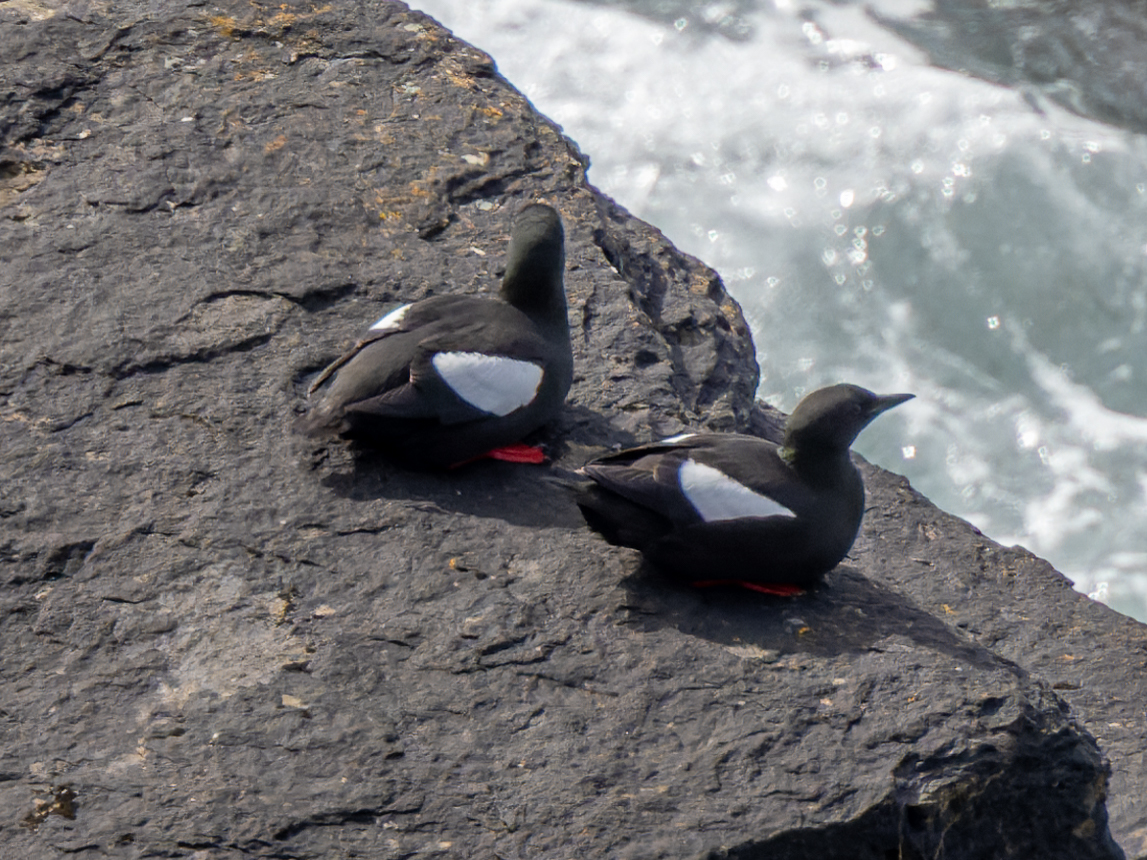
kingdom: Animalia
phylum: Chordata
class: Aves
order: Charadriiformes
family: Alcidae
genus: Cepphus
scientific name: Cepphus grylle
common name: Black guillemot
